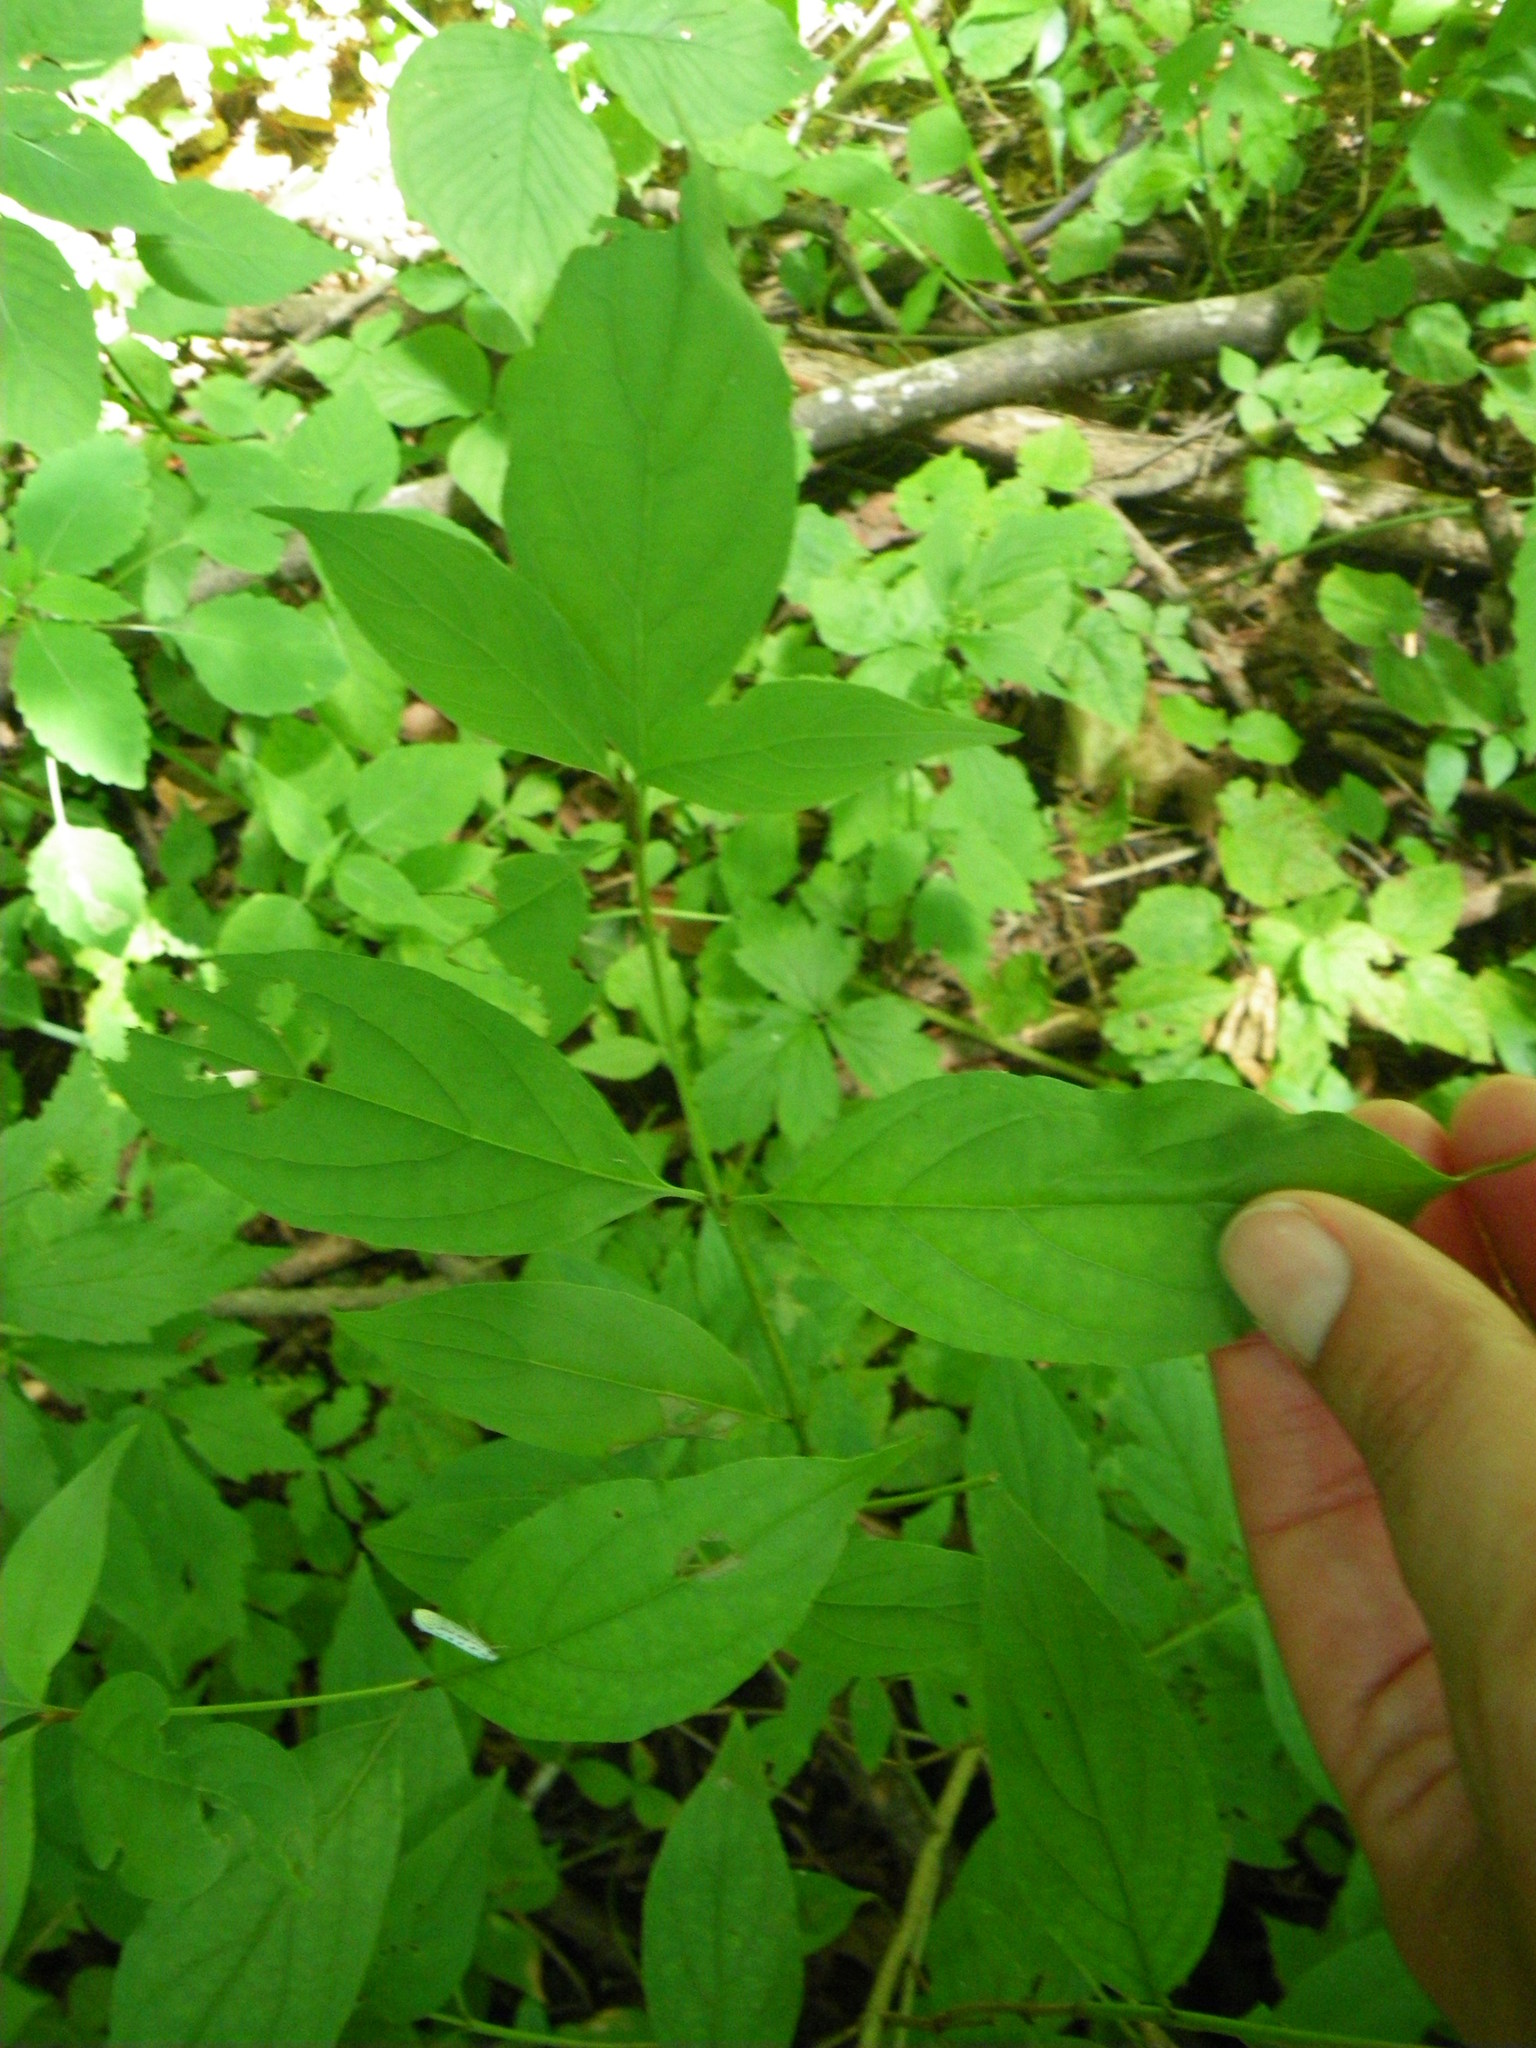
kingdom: Plantae
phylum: Tracheophyta
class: Magnoliopsida
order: Cornales
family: Cornaceae
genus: Cornus
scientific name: Cornus racemosa
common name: Panicled dogwood
